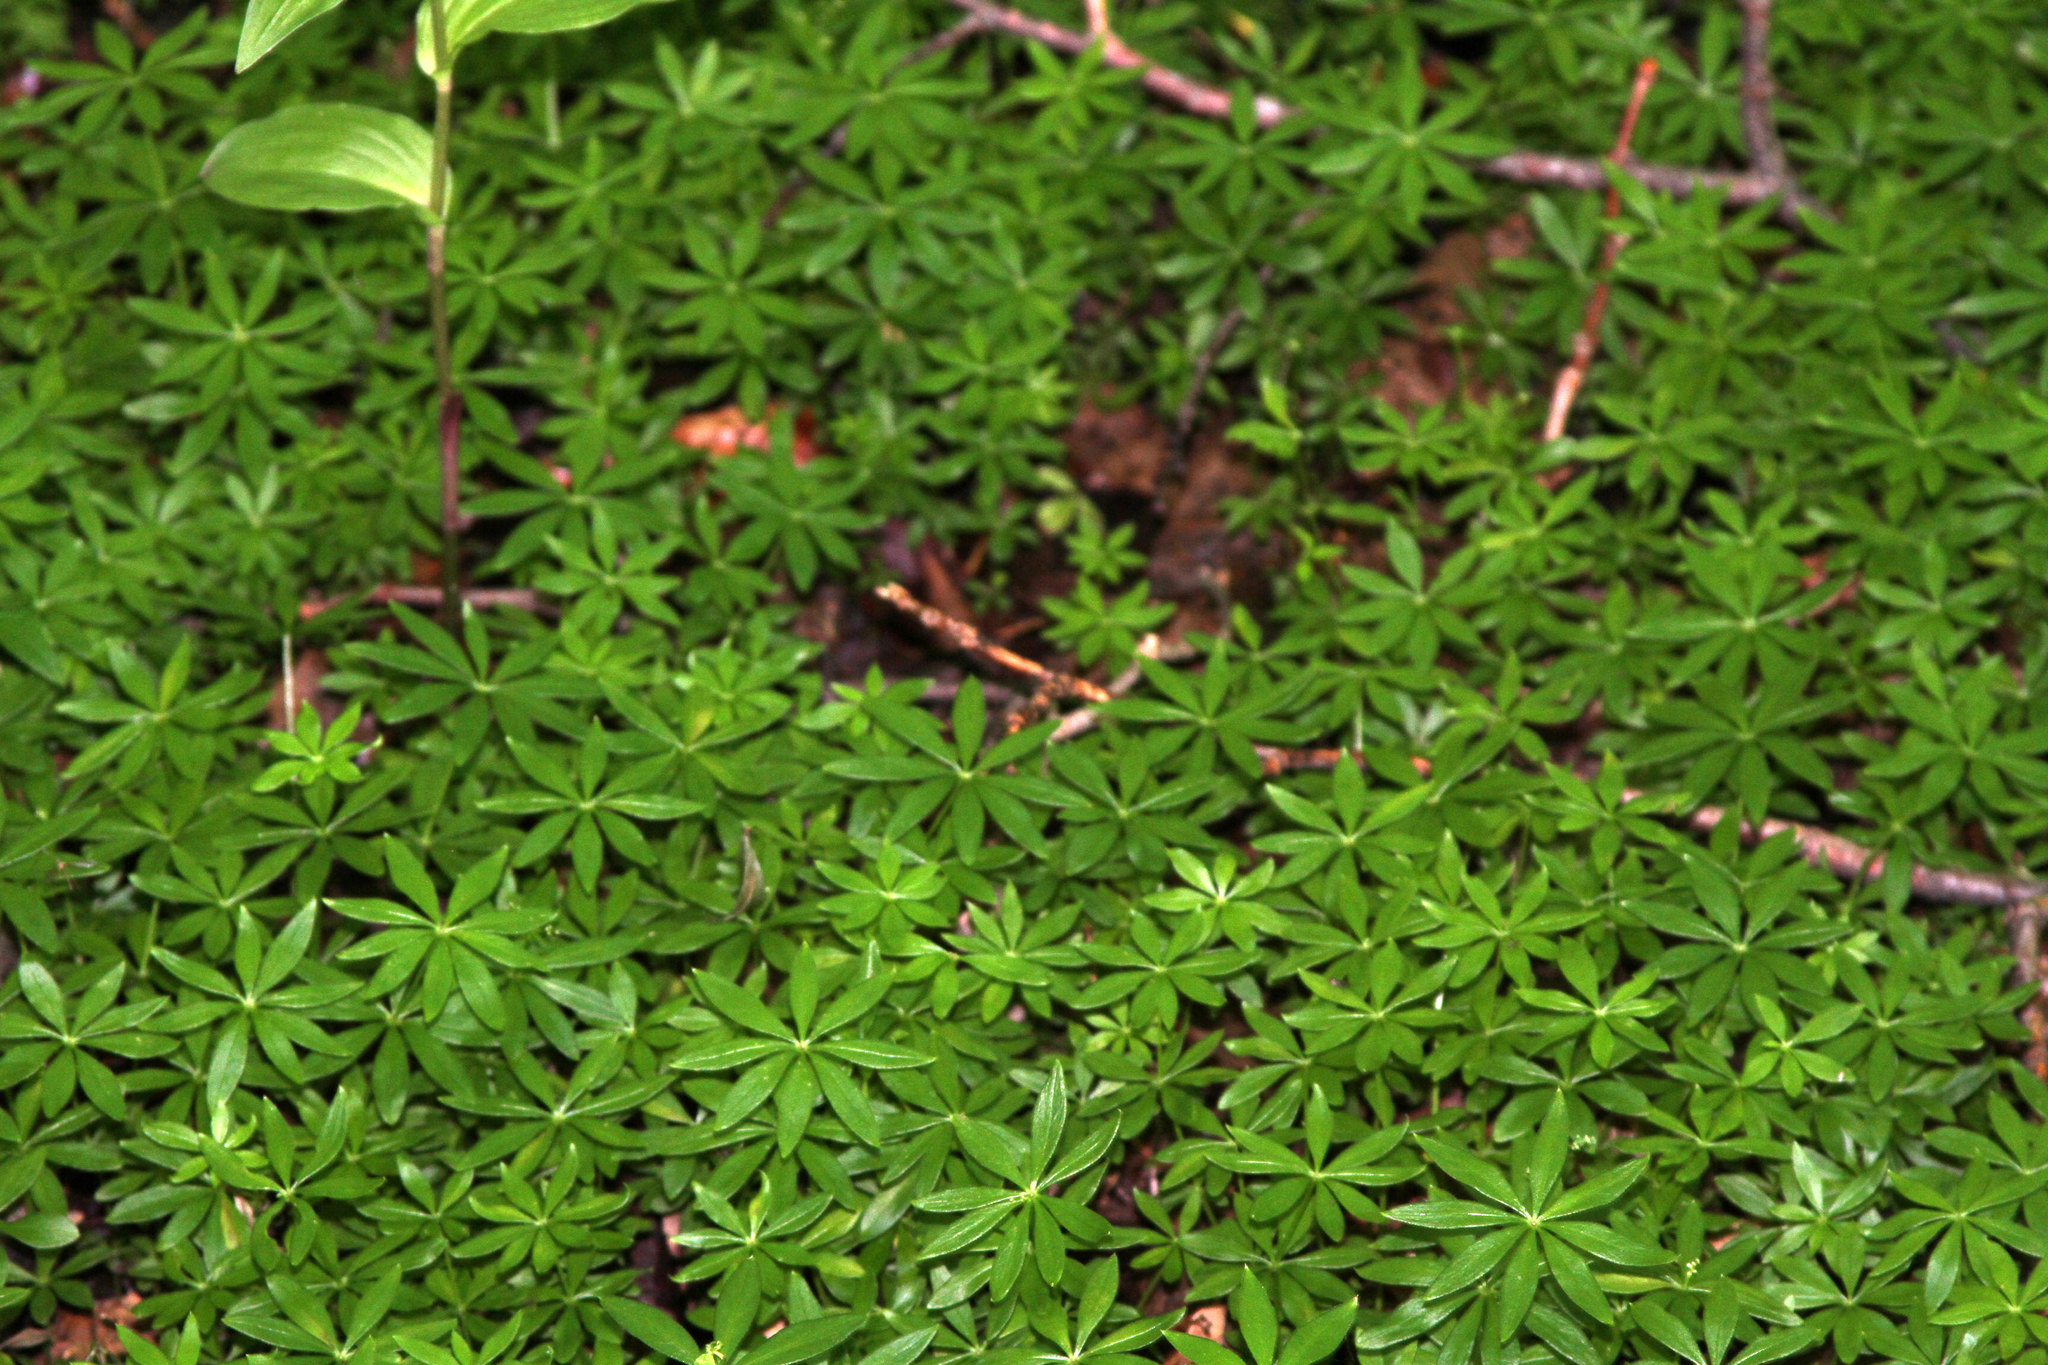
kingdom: Plantae
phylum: Tracheophyta
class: Magnoliopsida
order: Gentianales
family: Rubiaceae
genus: Galium
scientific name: Galium odoratum
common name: Sweet woodruff
